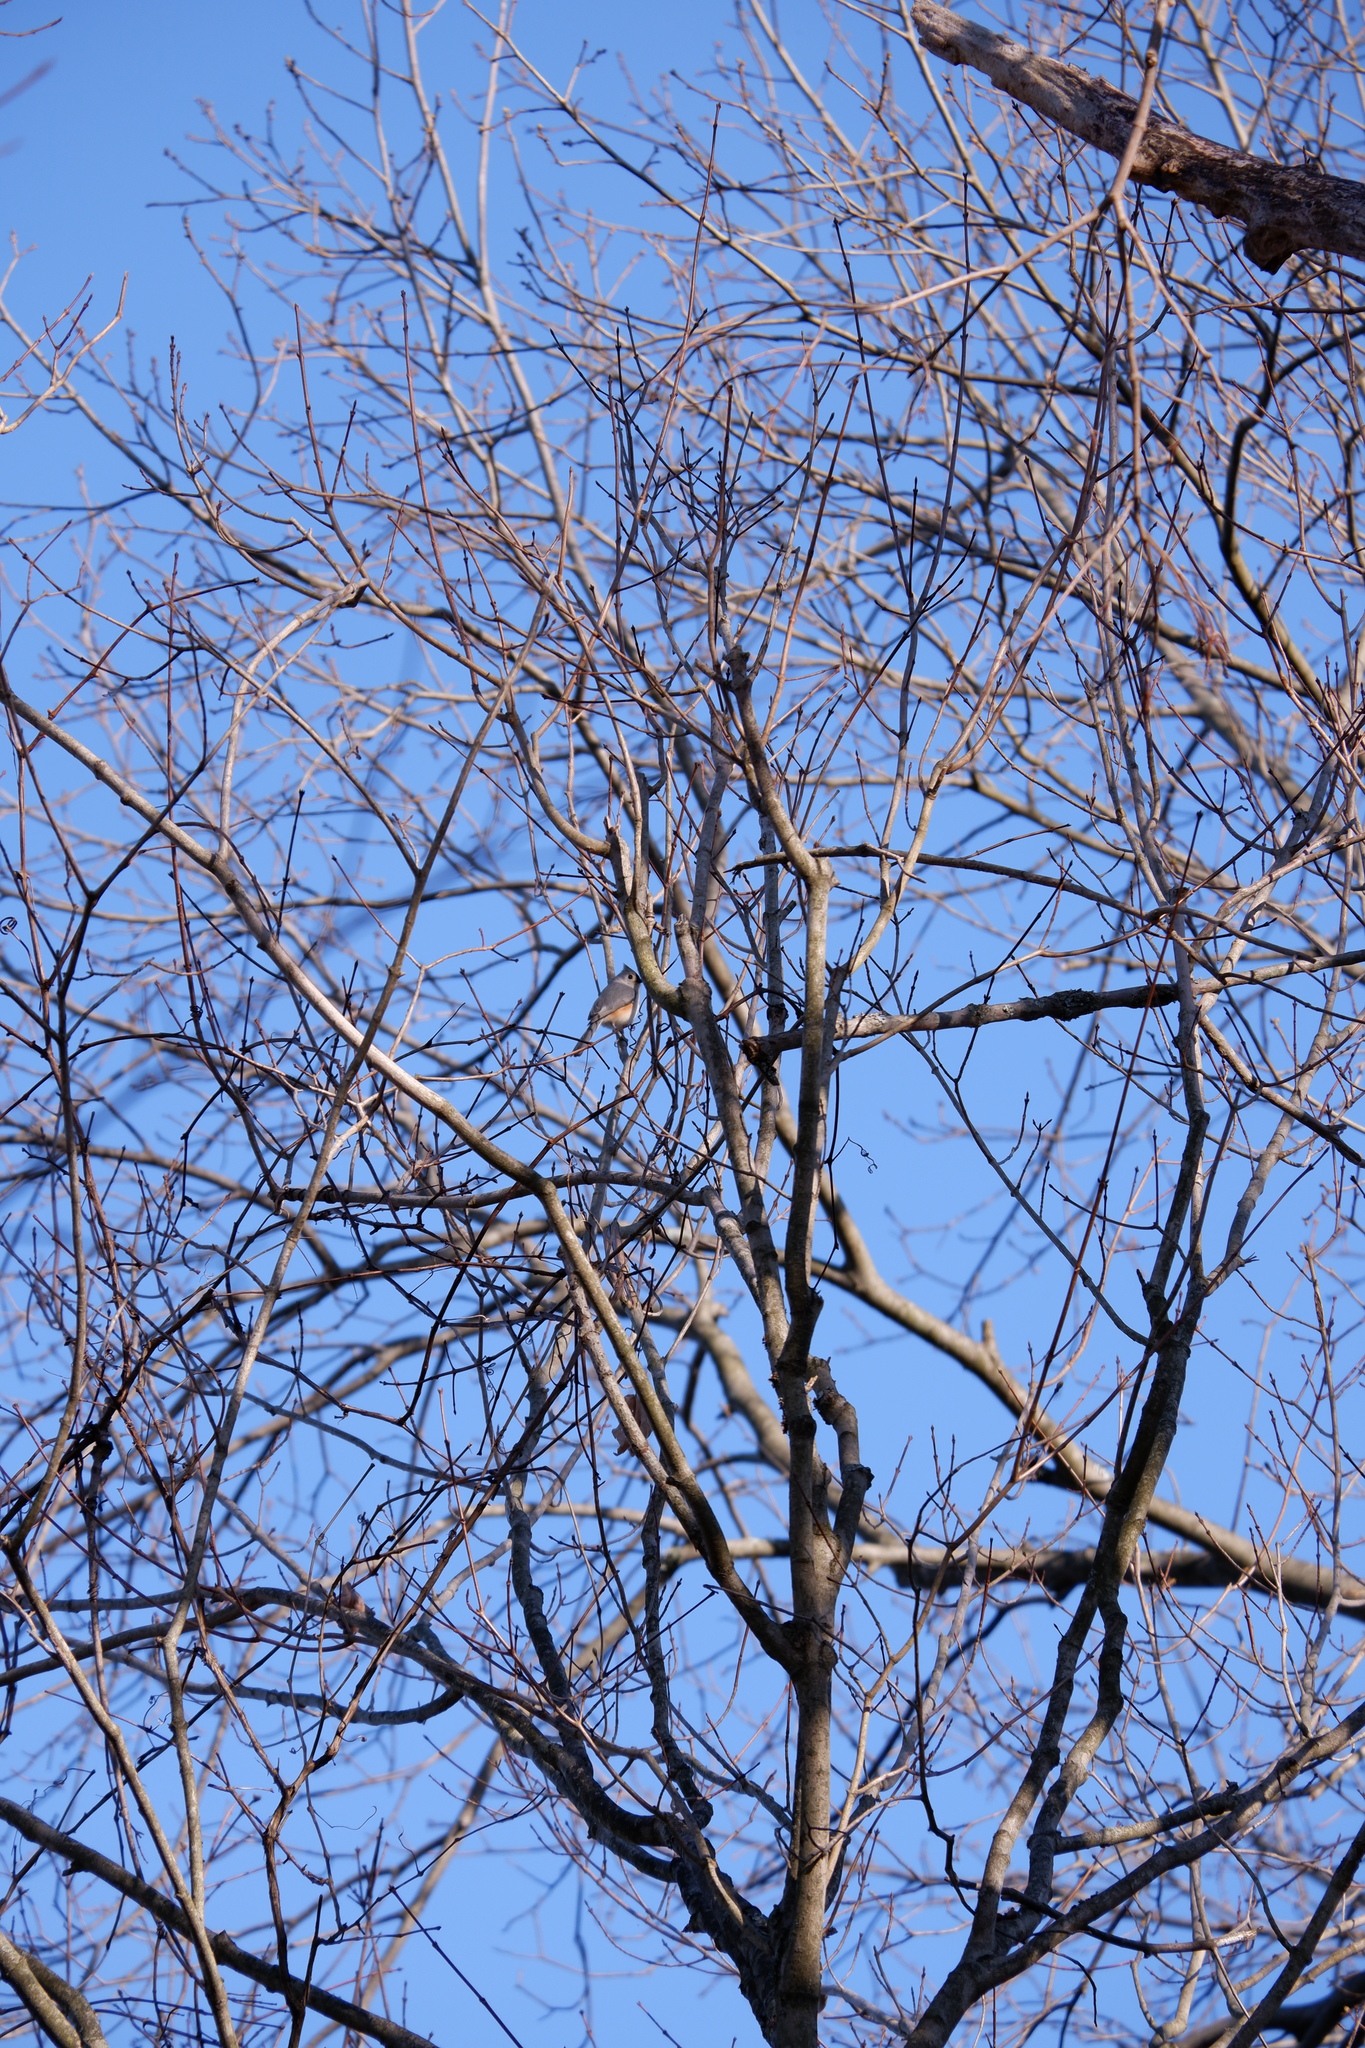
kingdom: Animalia
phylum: Chordata
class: Aves
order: Passeriformes
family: Paridae
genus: Baeolophus
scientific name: Baeolophus bicolor
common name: Tufted titmouse
